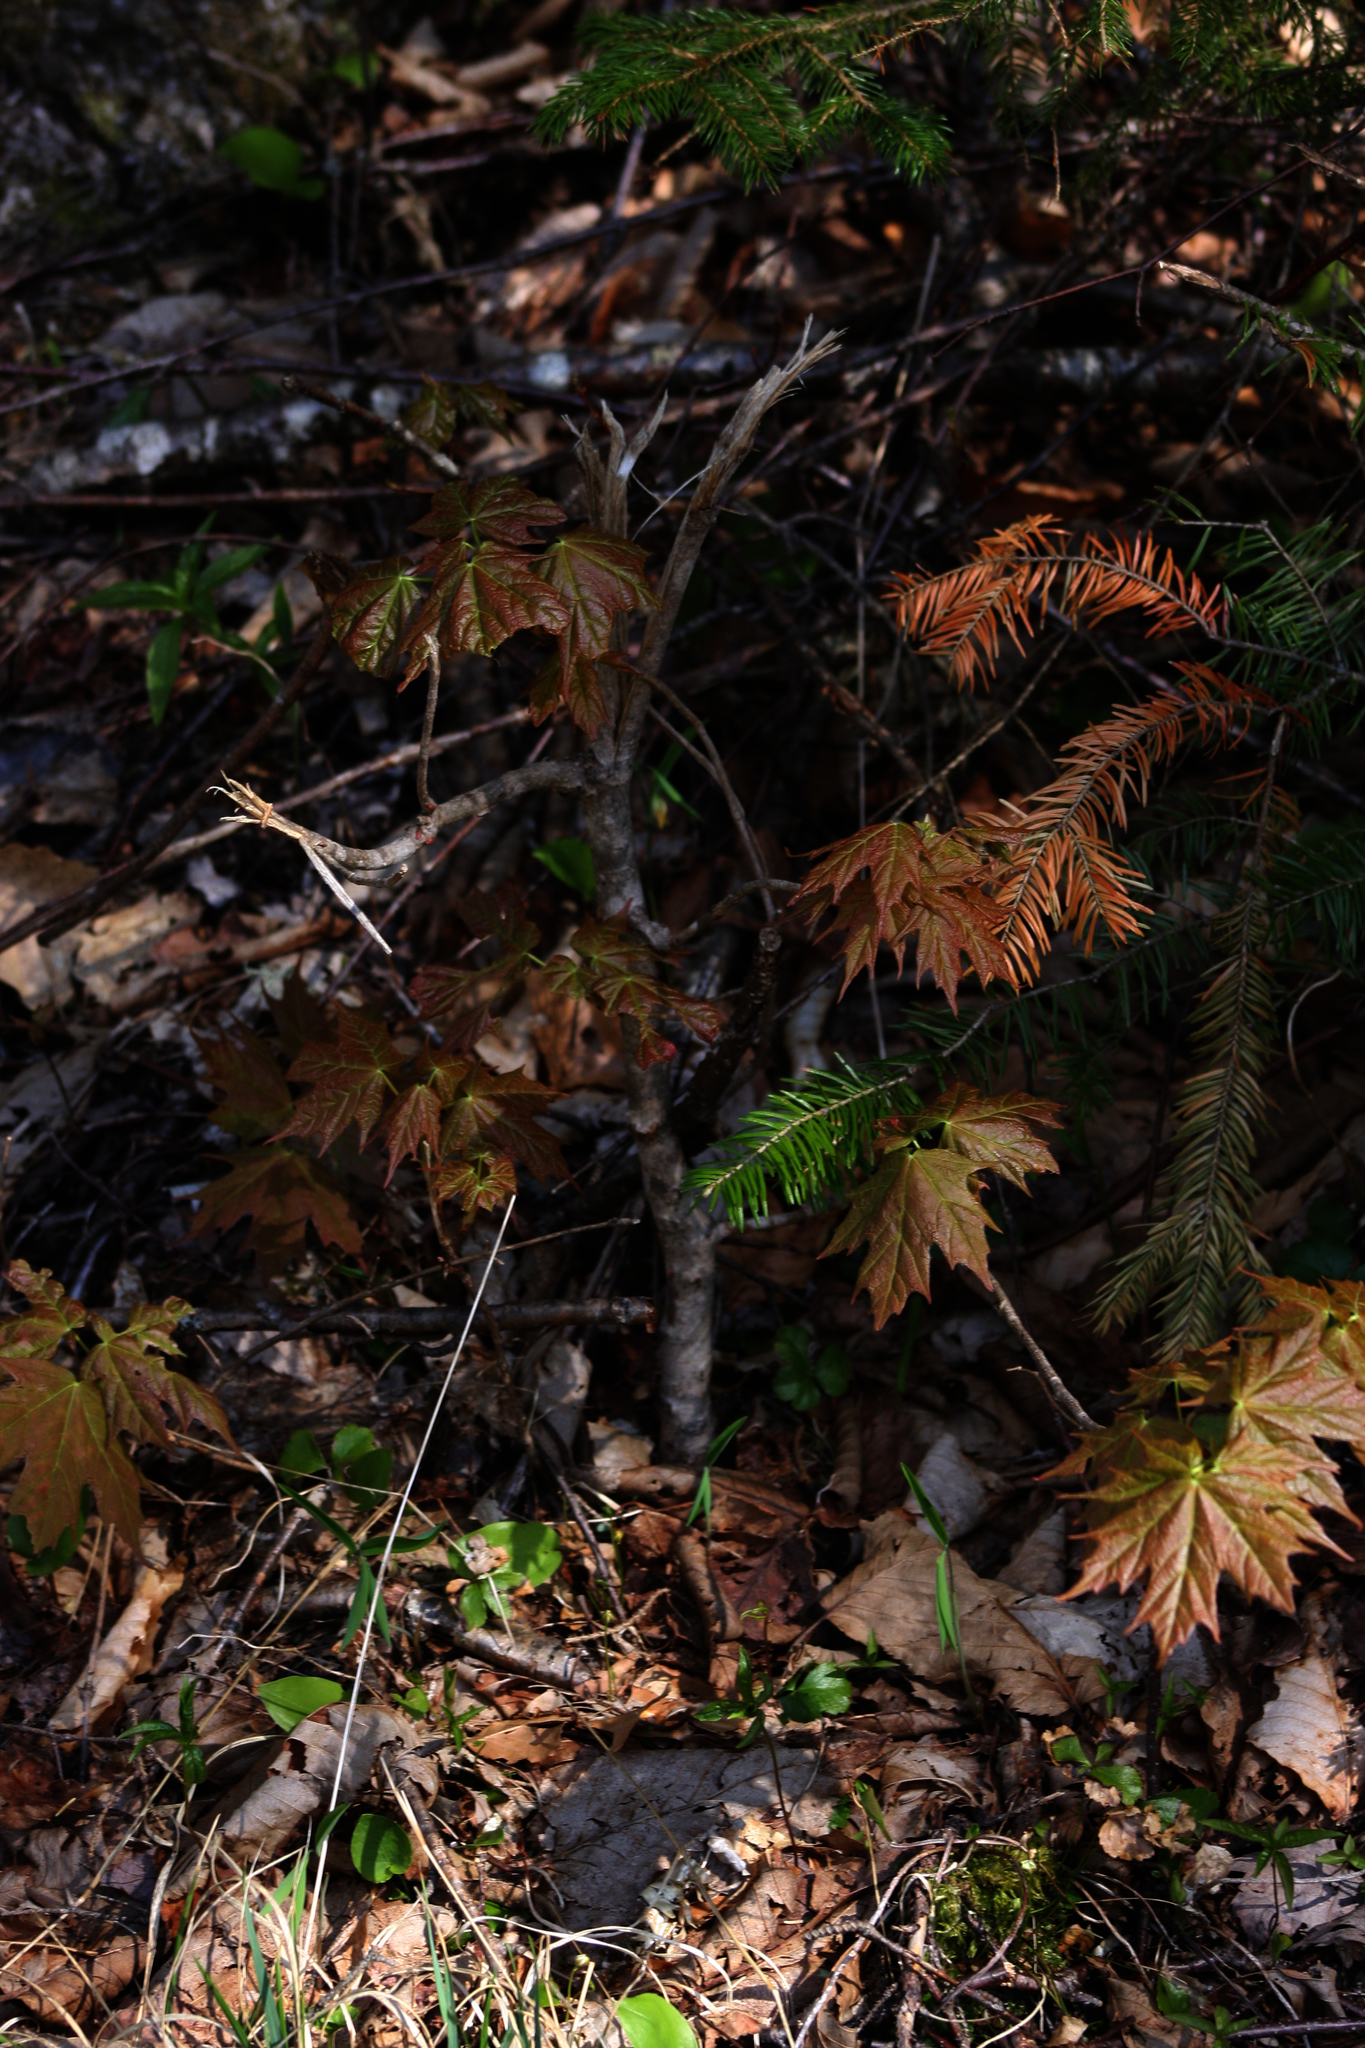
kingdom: Plantae
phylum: Tracheophyta
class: Pinopsida
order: Pinales
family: Pinaceae
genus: Abies
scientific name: Abies balsamea
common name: Balsam fir
